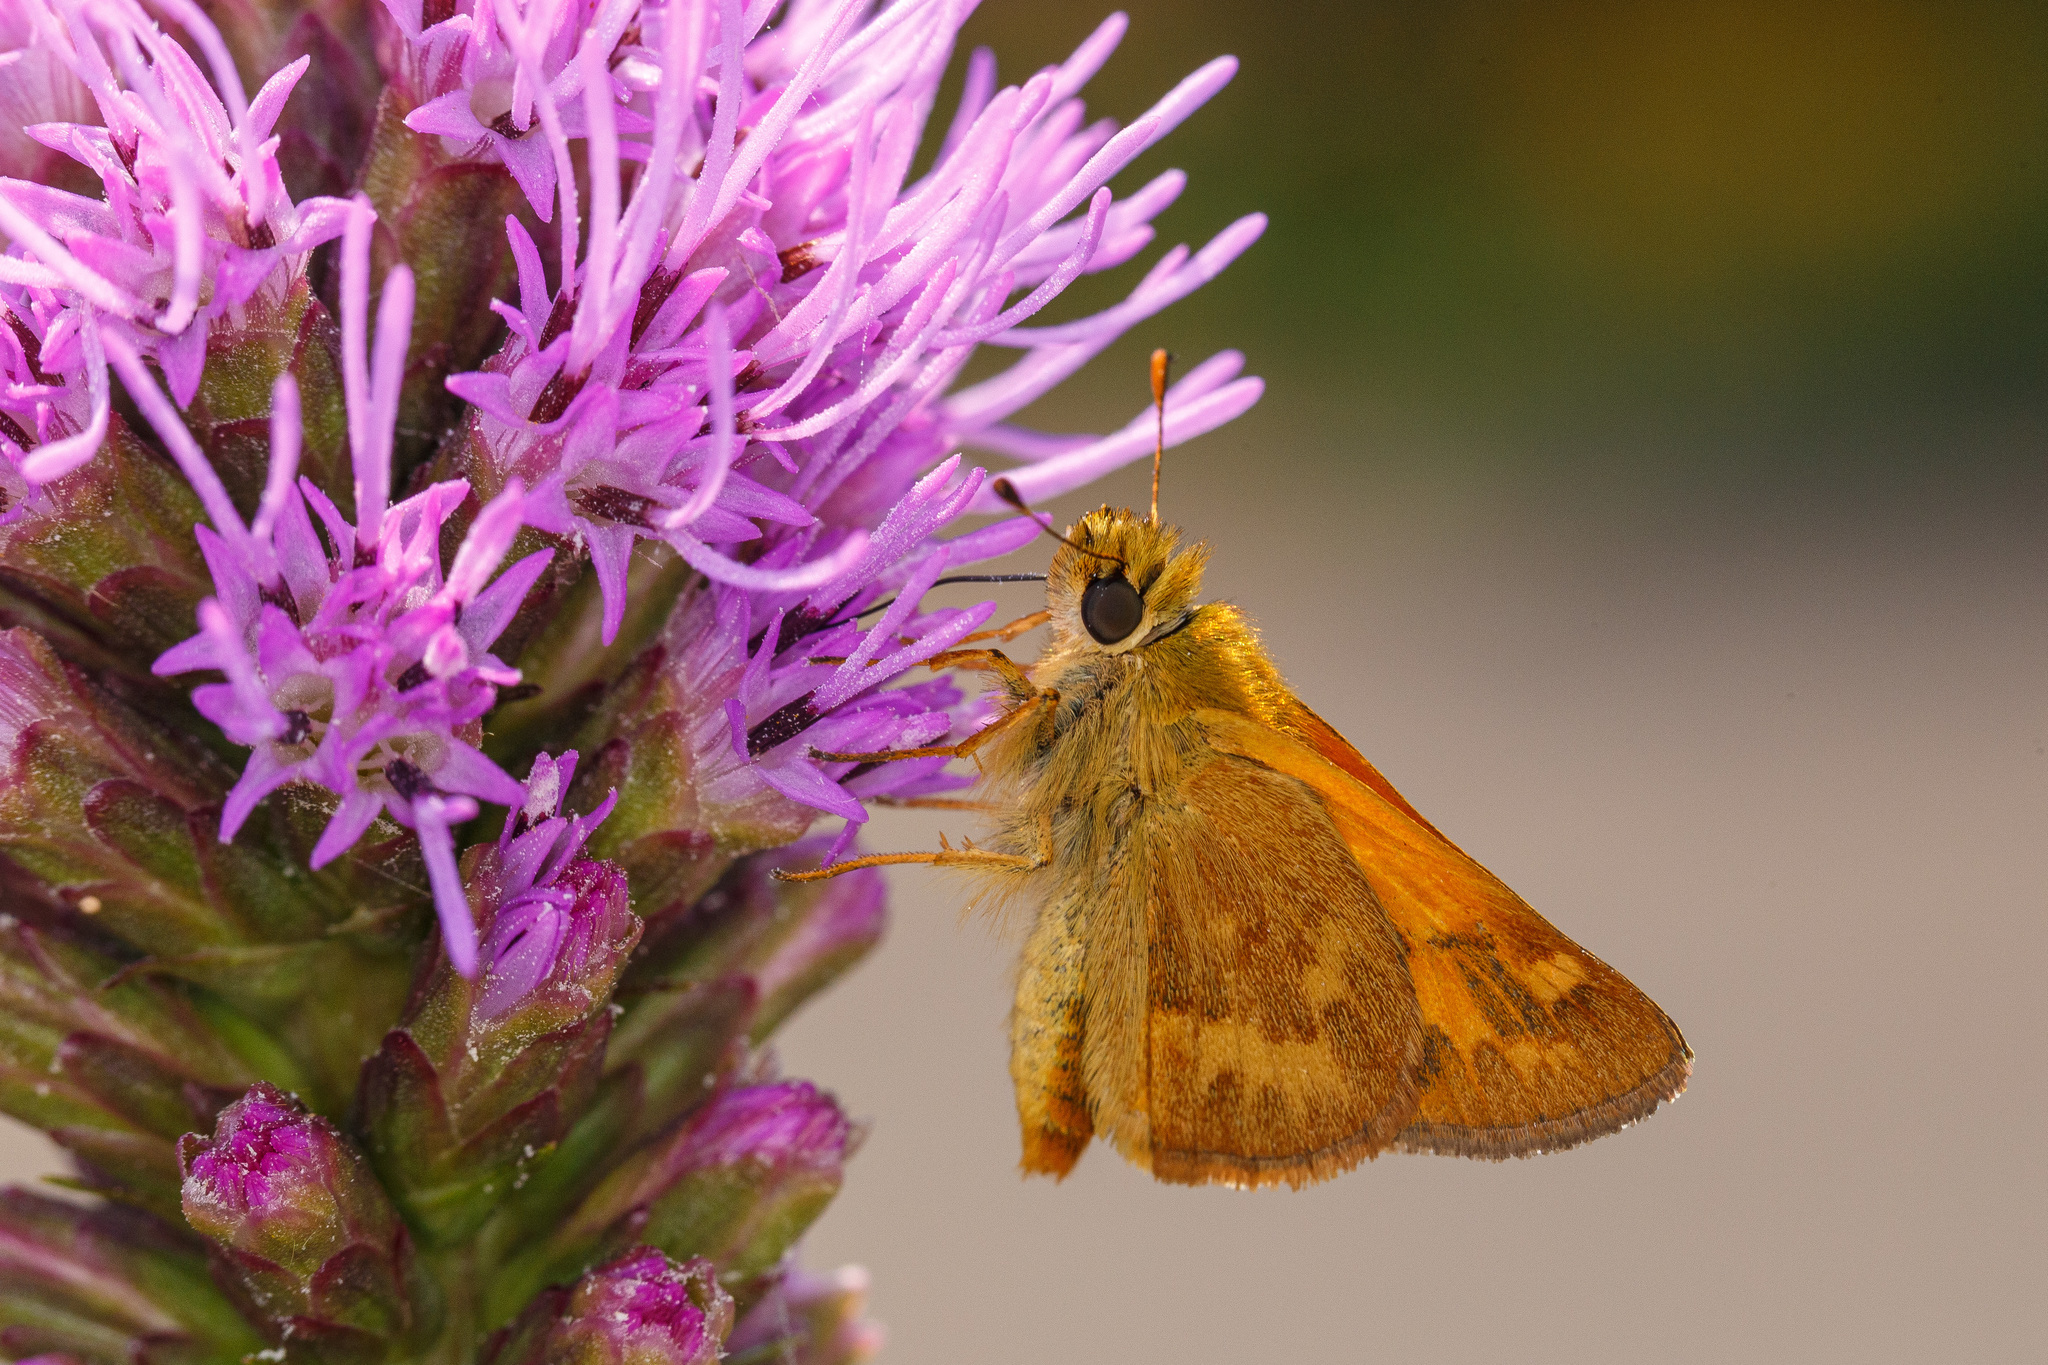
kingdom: Animalia
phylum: Arthropoda
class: Insecta
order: Lepidoptera
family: Hesperiidae
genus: Ochlodes
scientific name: Ochlodes sylvanoides
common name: Woodland skipper
